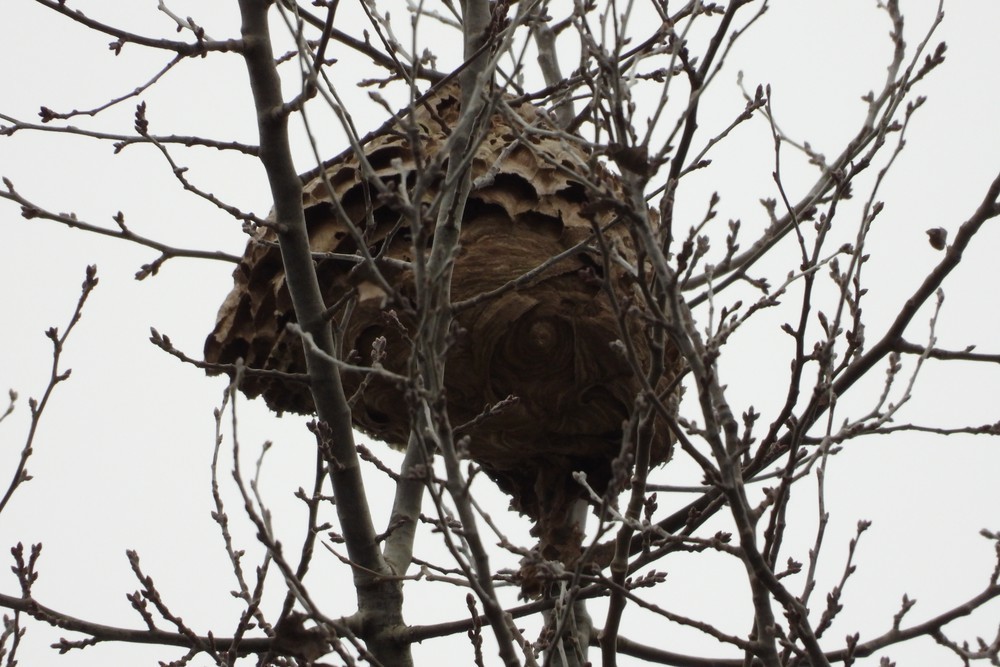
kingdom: Animalia
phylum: Arthropoda
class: Insecta
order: Hymenoptera
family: Vespidae
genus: Vespa
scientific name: Vespa velutina
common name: Asian hornet
